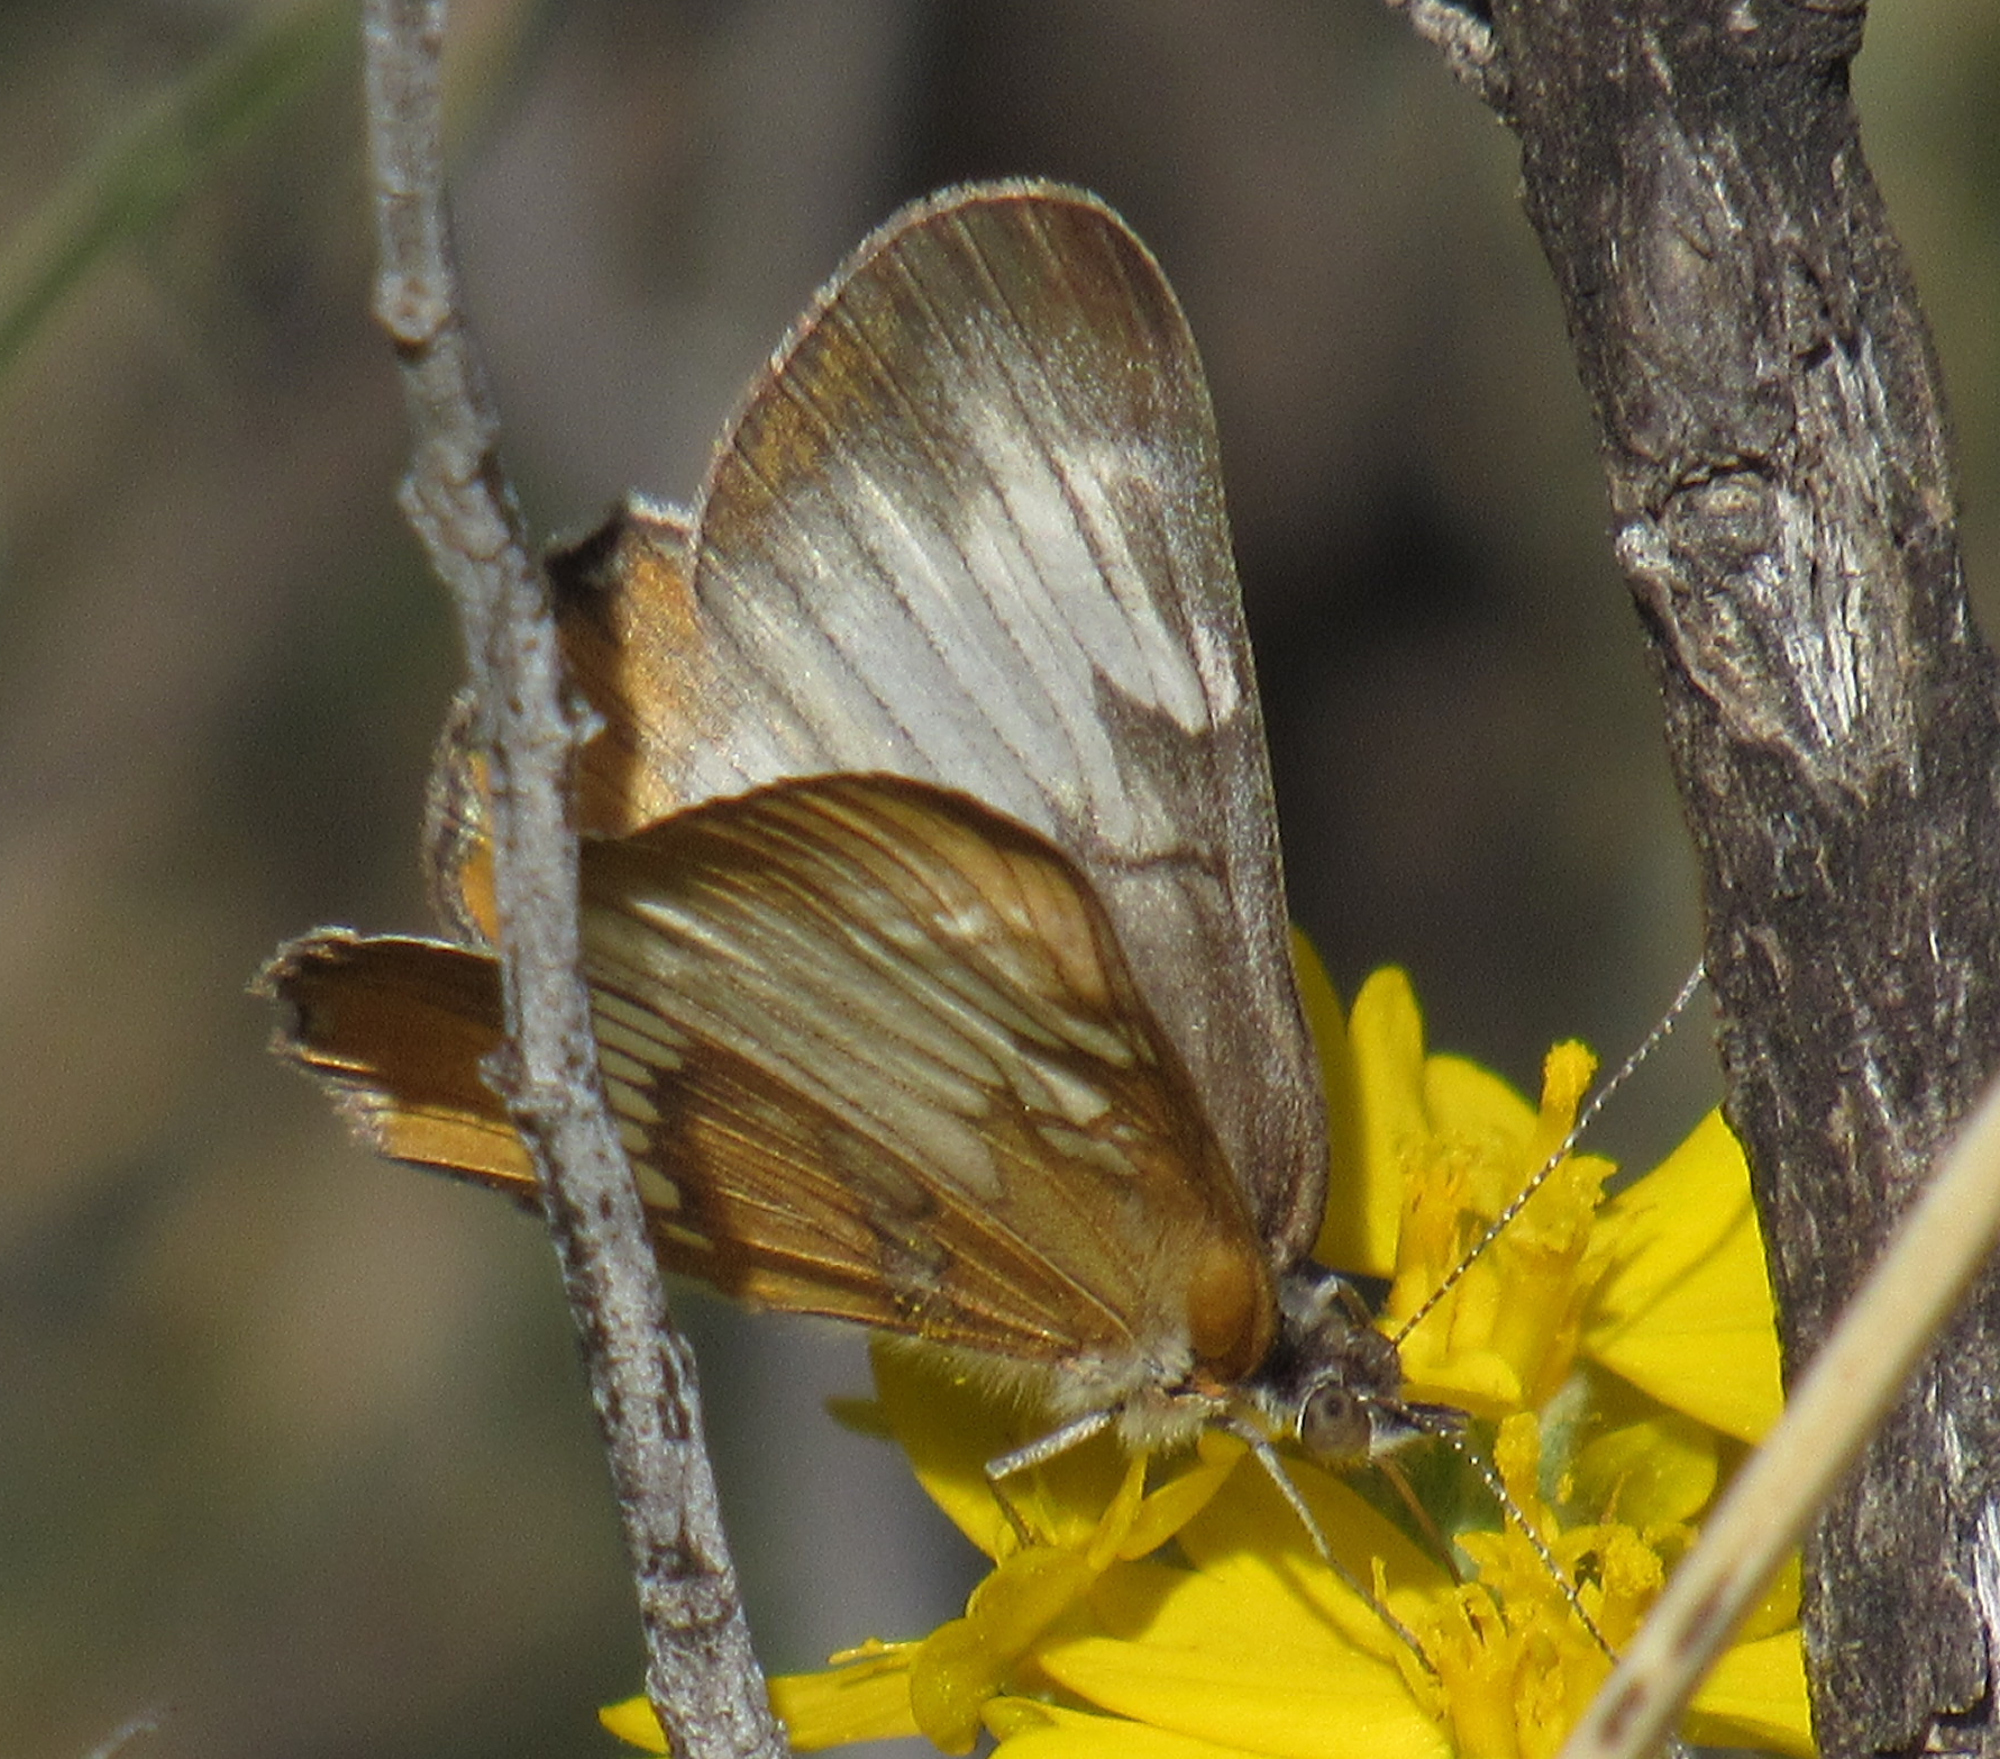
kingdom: Animalia
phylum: Arthropoda
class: Insecta
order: Lepidoptera
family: Nymphalidae
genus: Mestra
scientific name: Mestra amymone
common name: Common mestra
